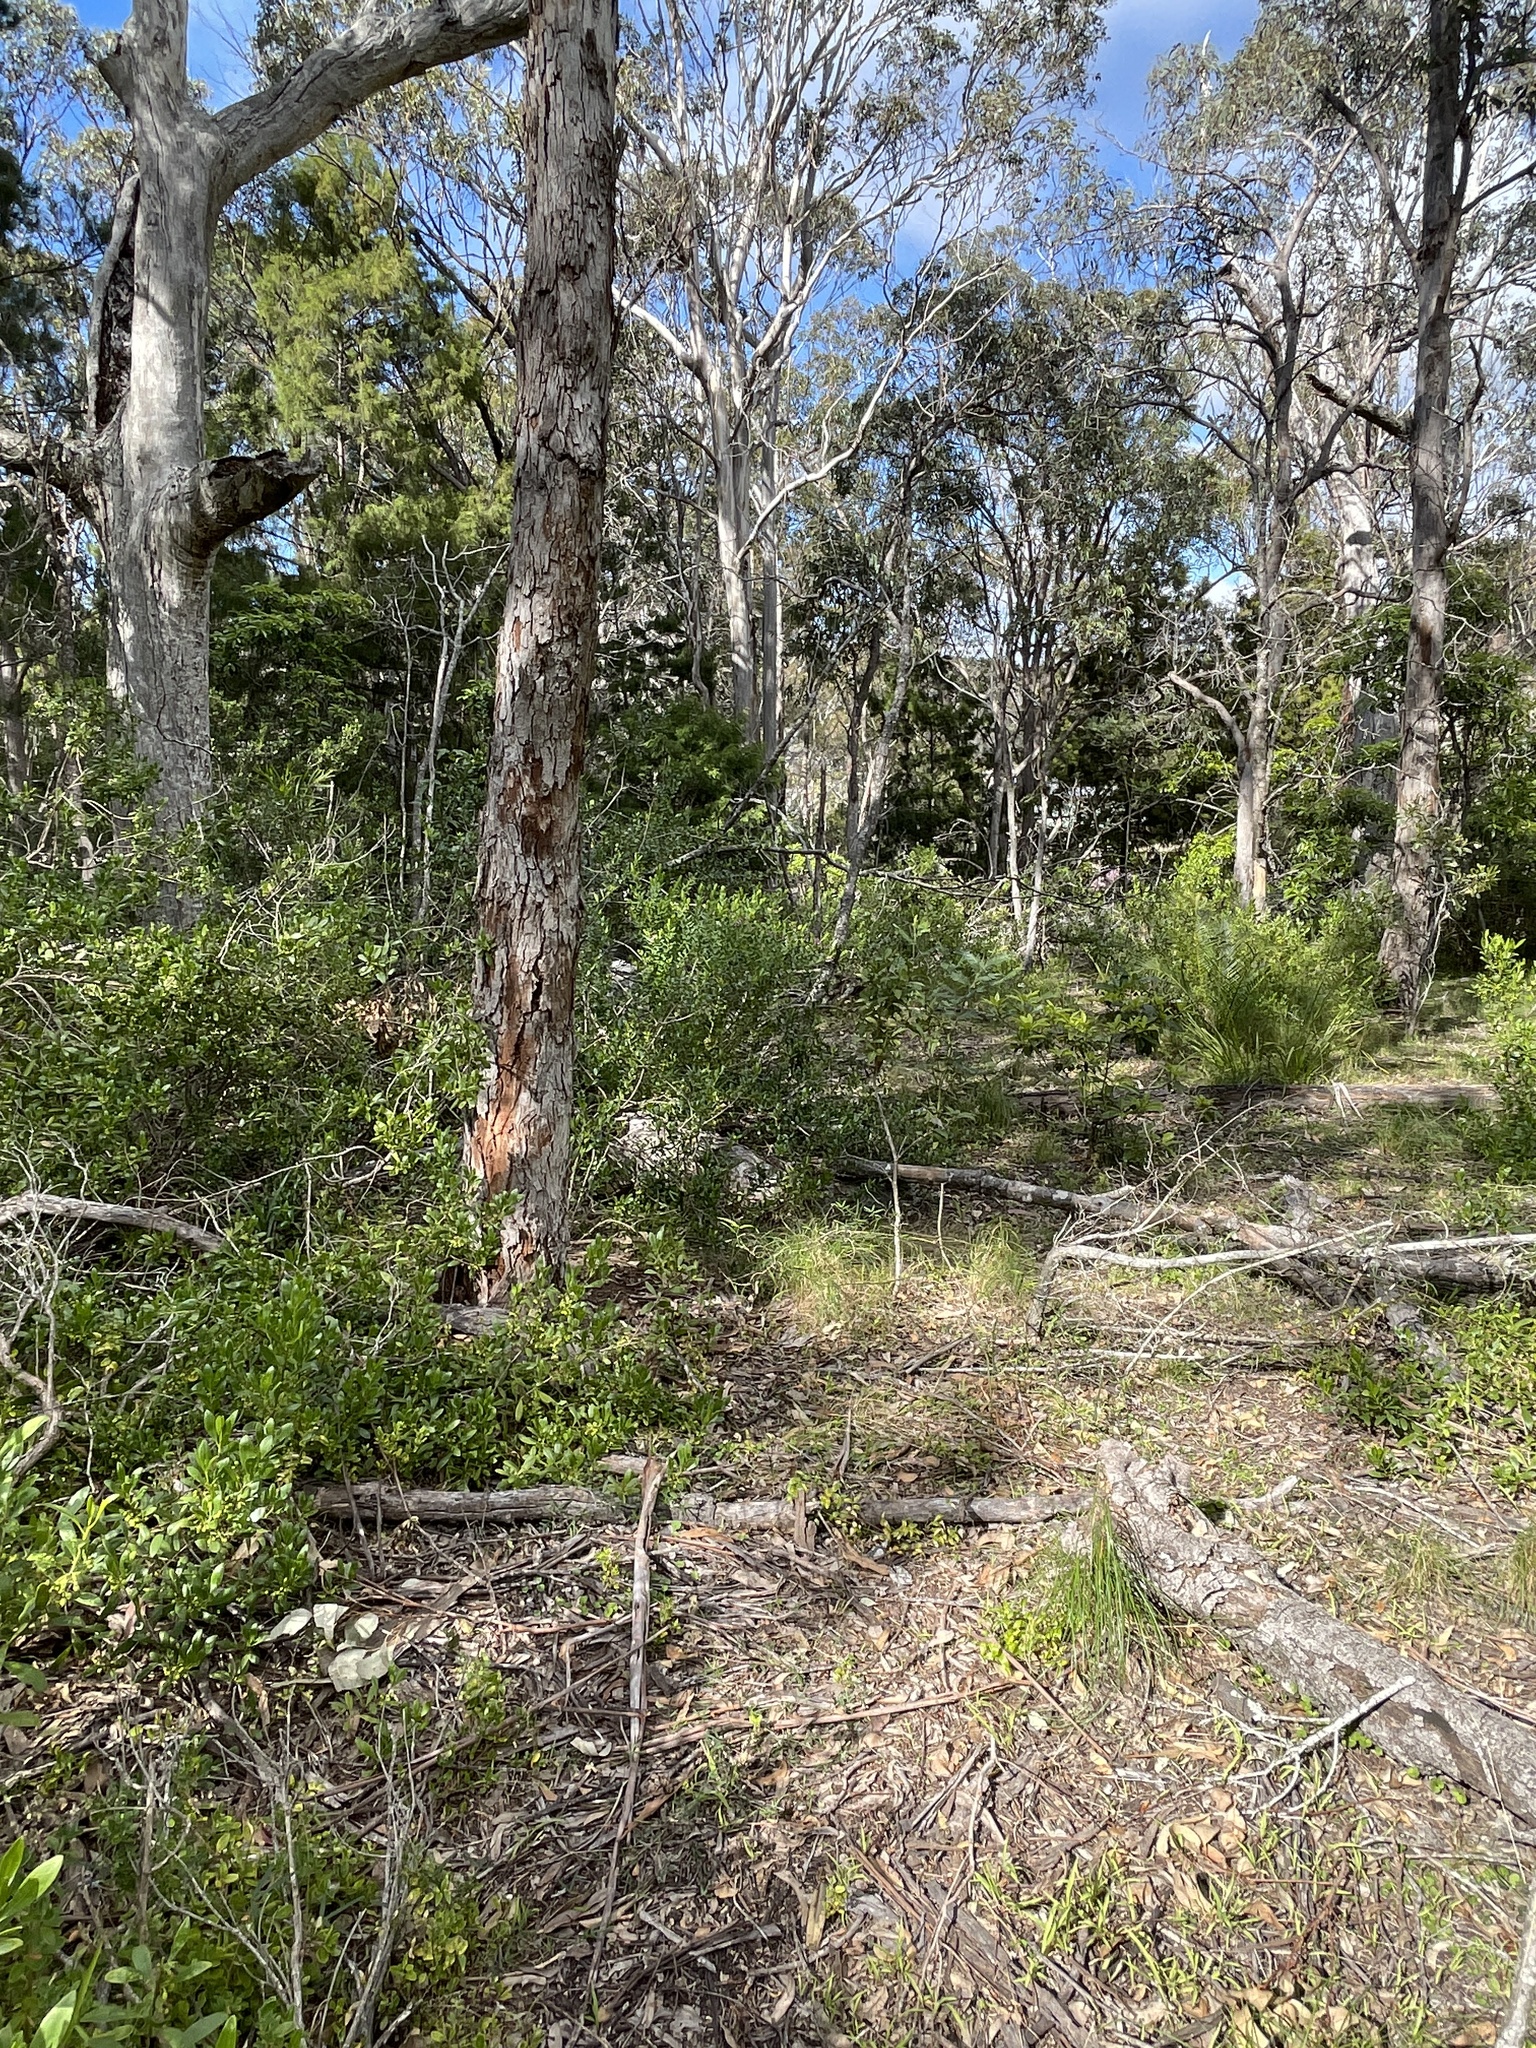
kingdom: Plantae
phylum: Tracheophyta
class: Magnoliopsida
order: Fabales
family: Polygalaceae
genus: Polygala
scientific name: Polygala myrtifolia
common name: Myrtle-leaf milkwort
